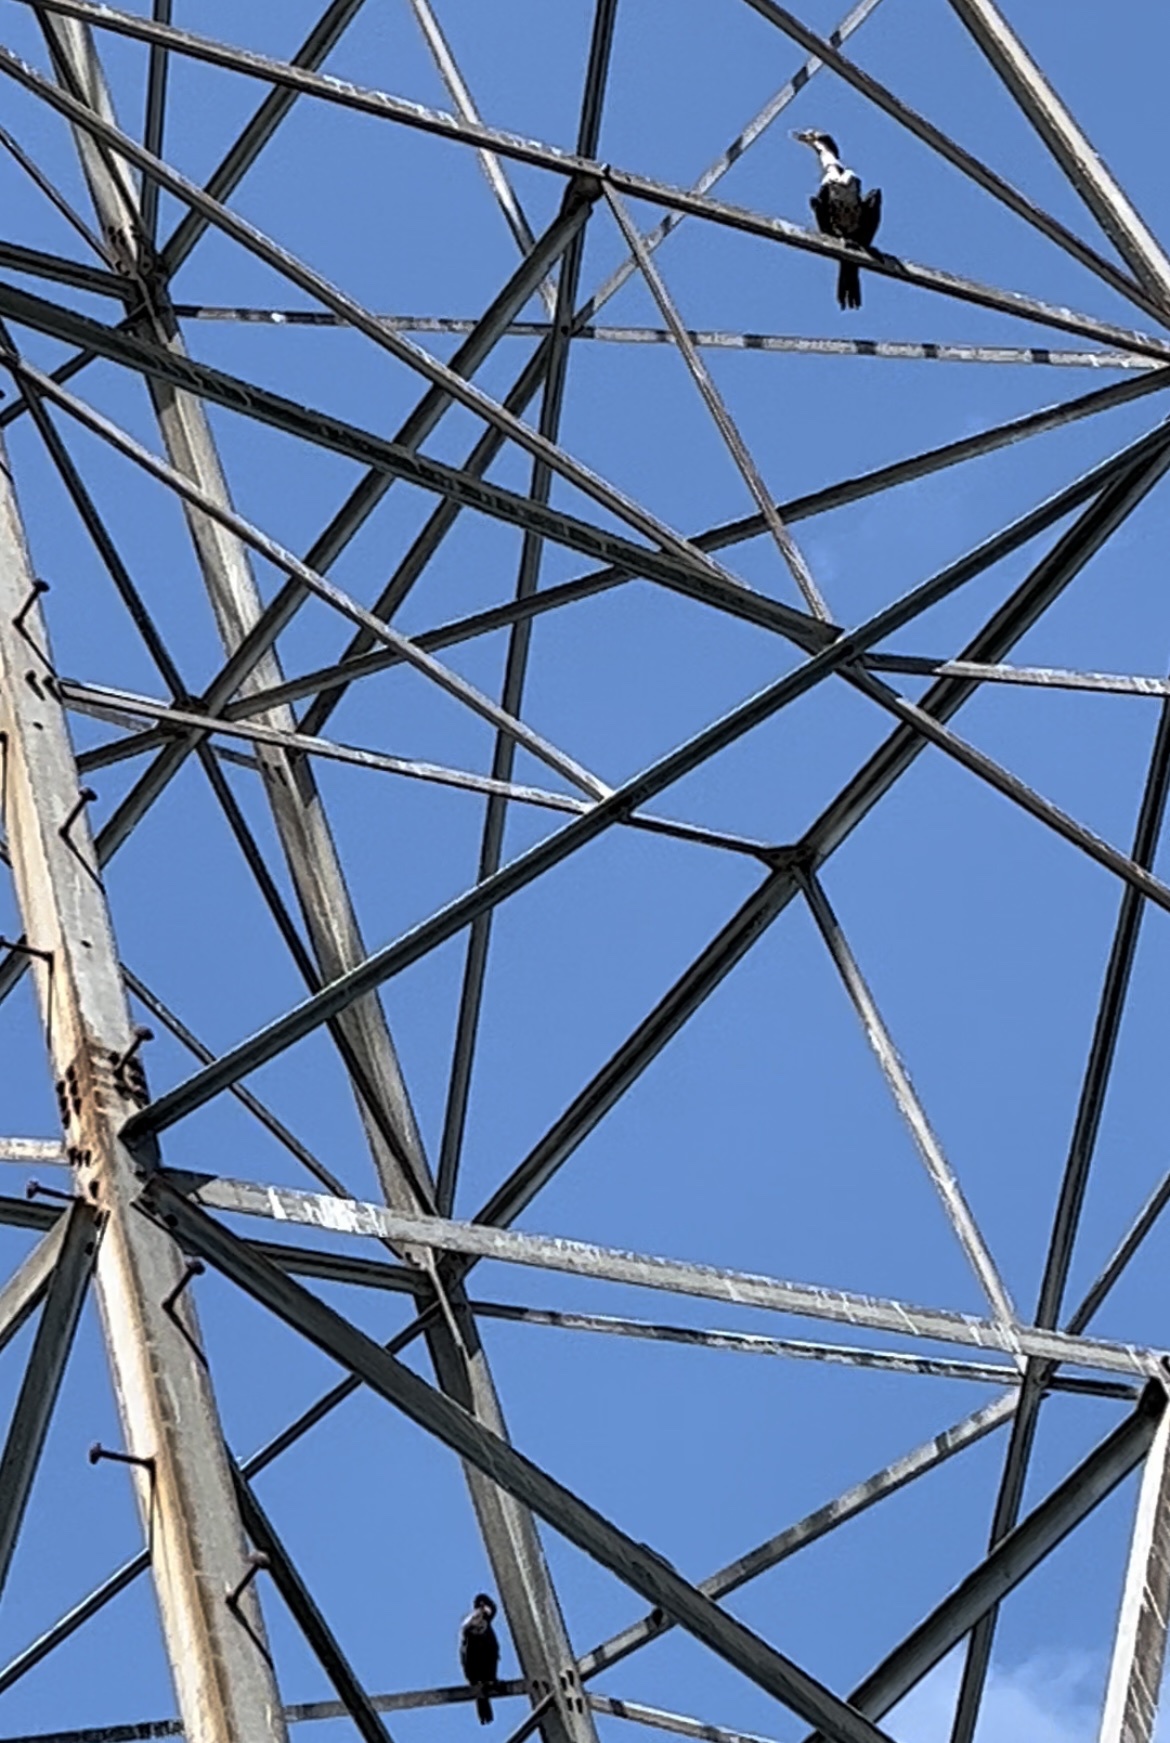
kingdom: Animalia
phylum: Chordata
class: Aves
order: Suliformes
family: Phalacrocoracidae
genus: Phalacrocorax
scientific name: Phalacrocorax auritus
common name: Double-crested cormorant
